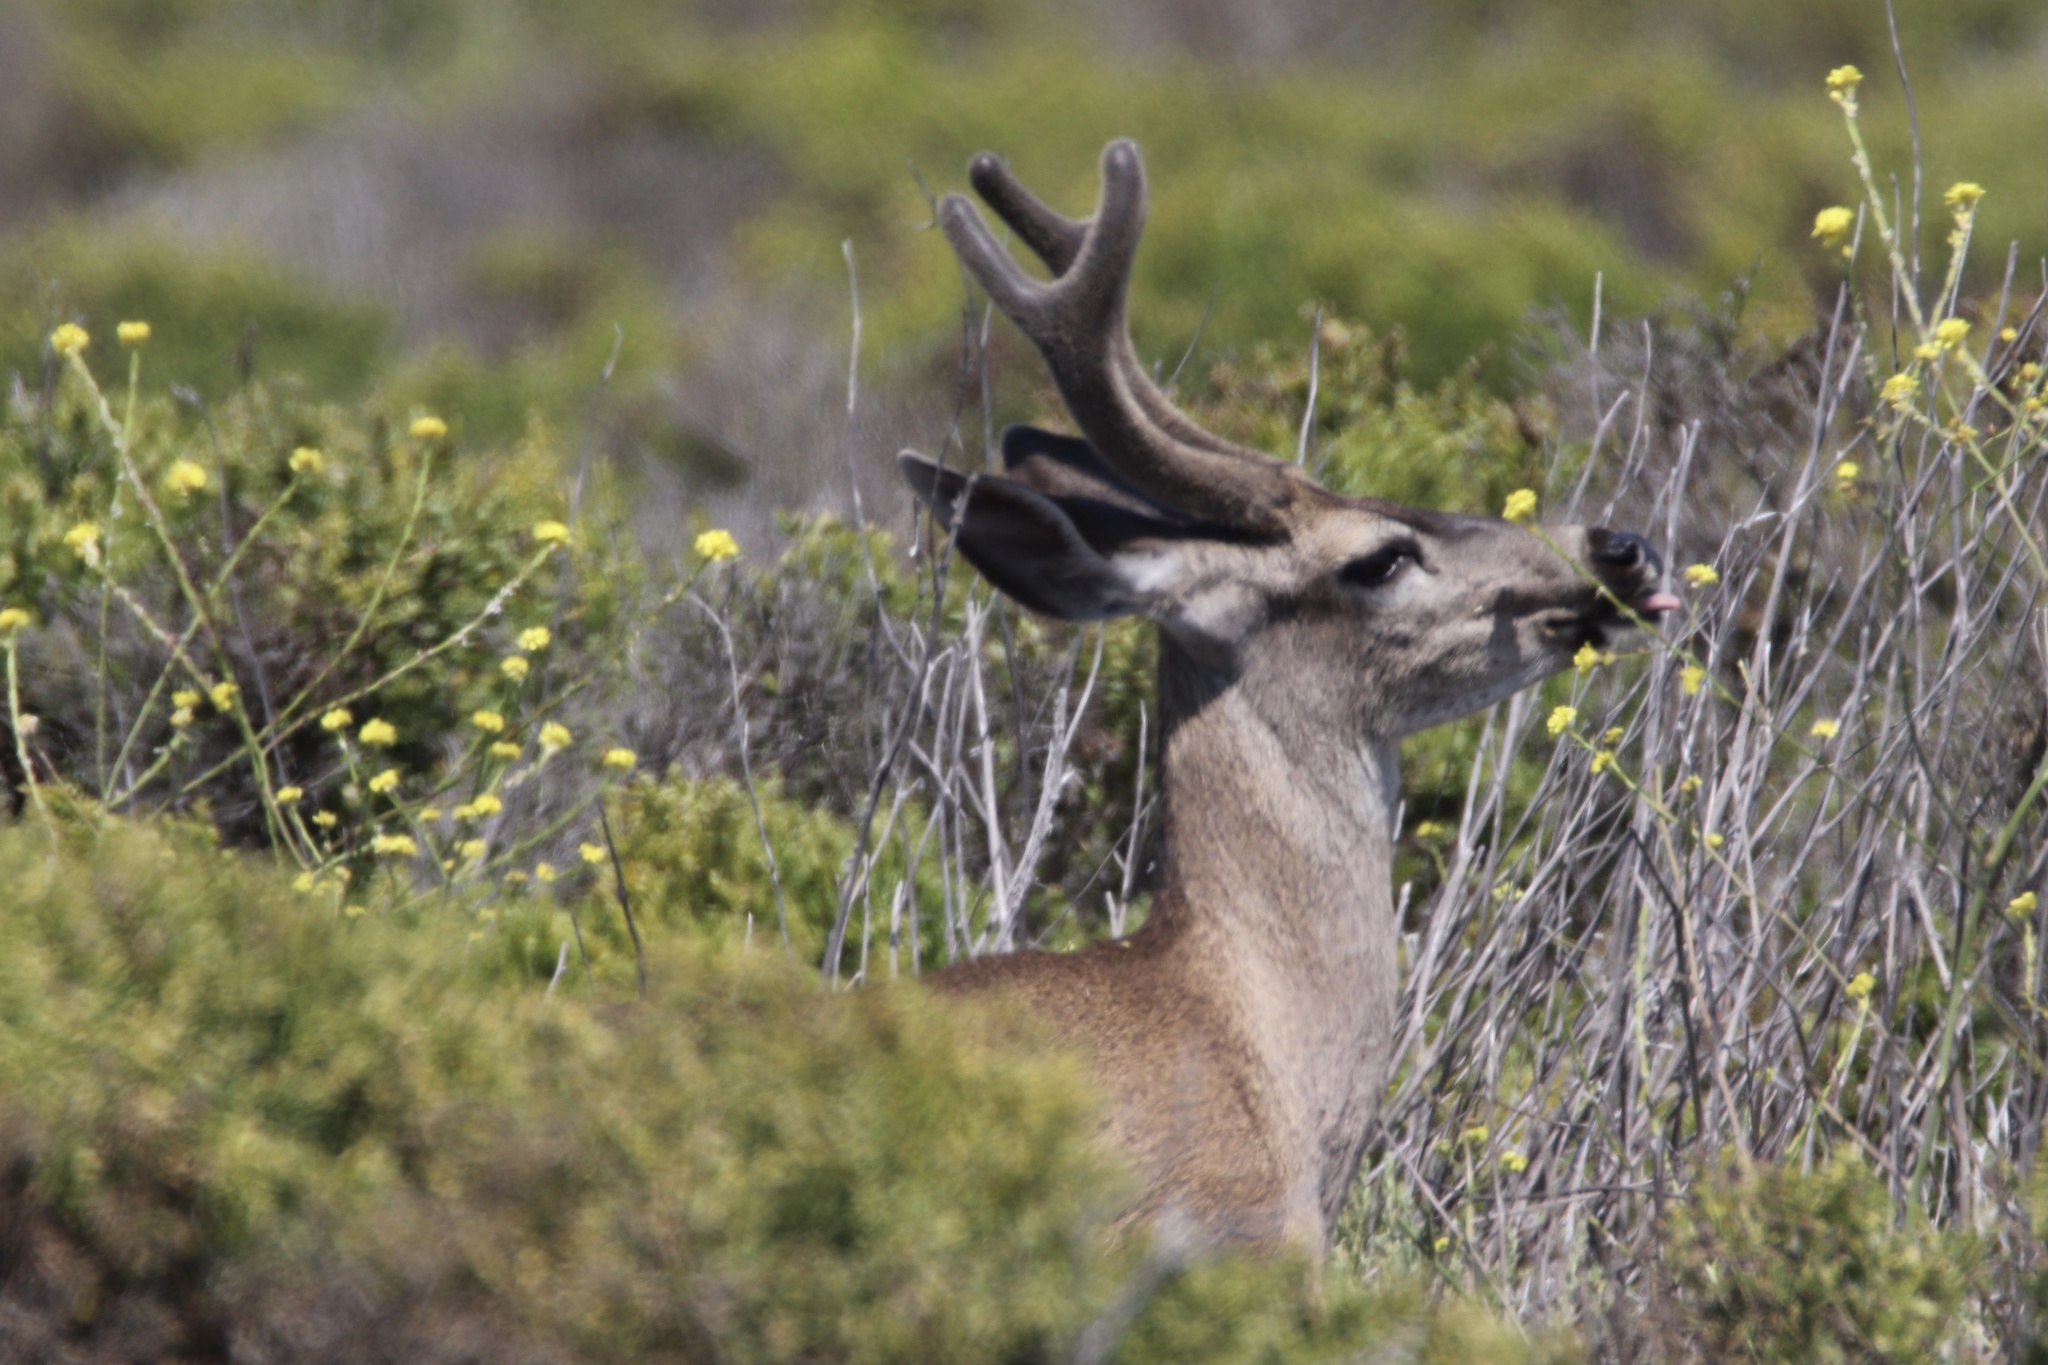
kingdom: Animalia
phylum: Chordata
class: Mammalia
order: Artiodactyla
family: Cervidae
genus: Odocoileus
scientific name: Odocoileus hemionus
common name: Mule deer
